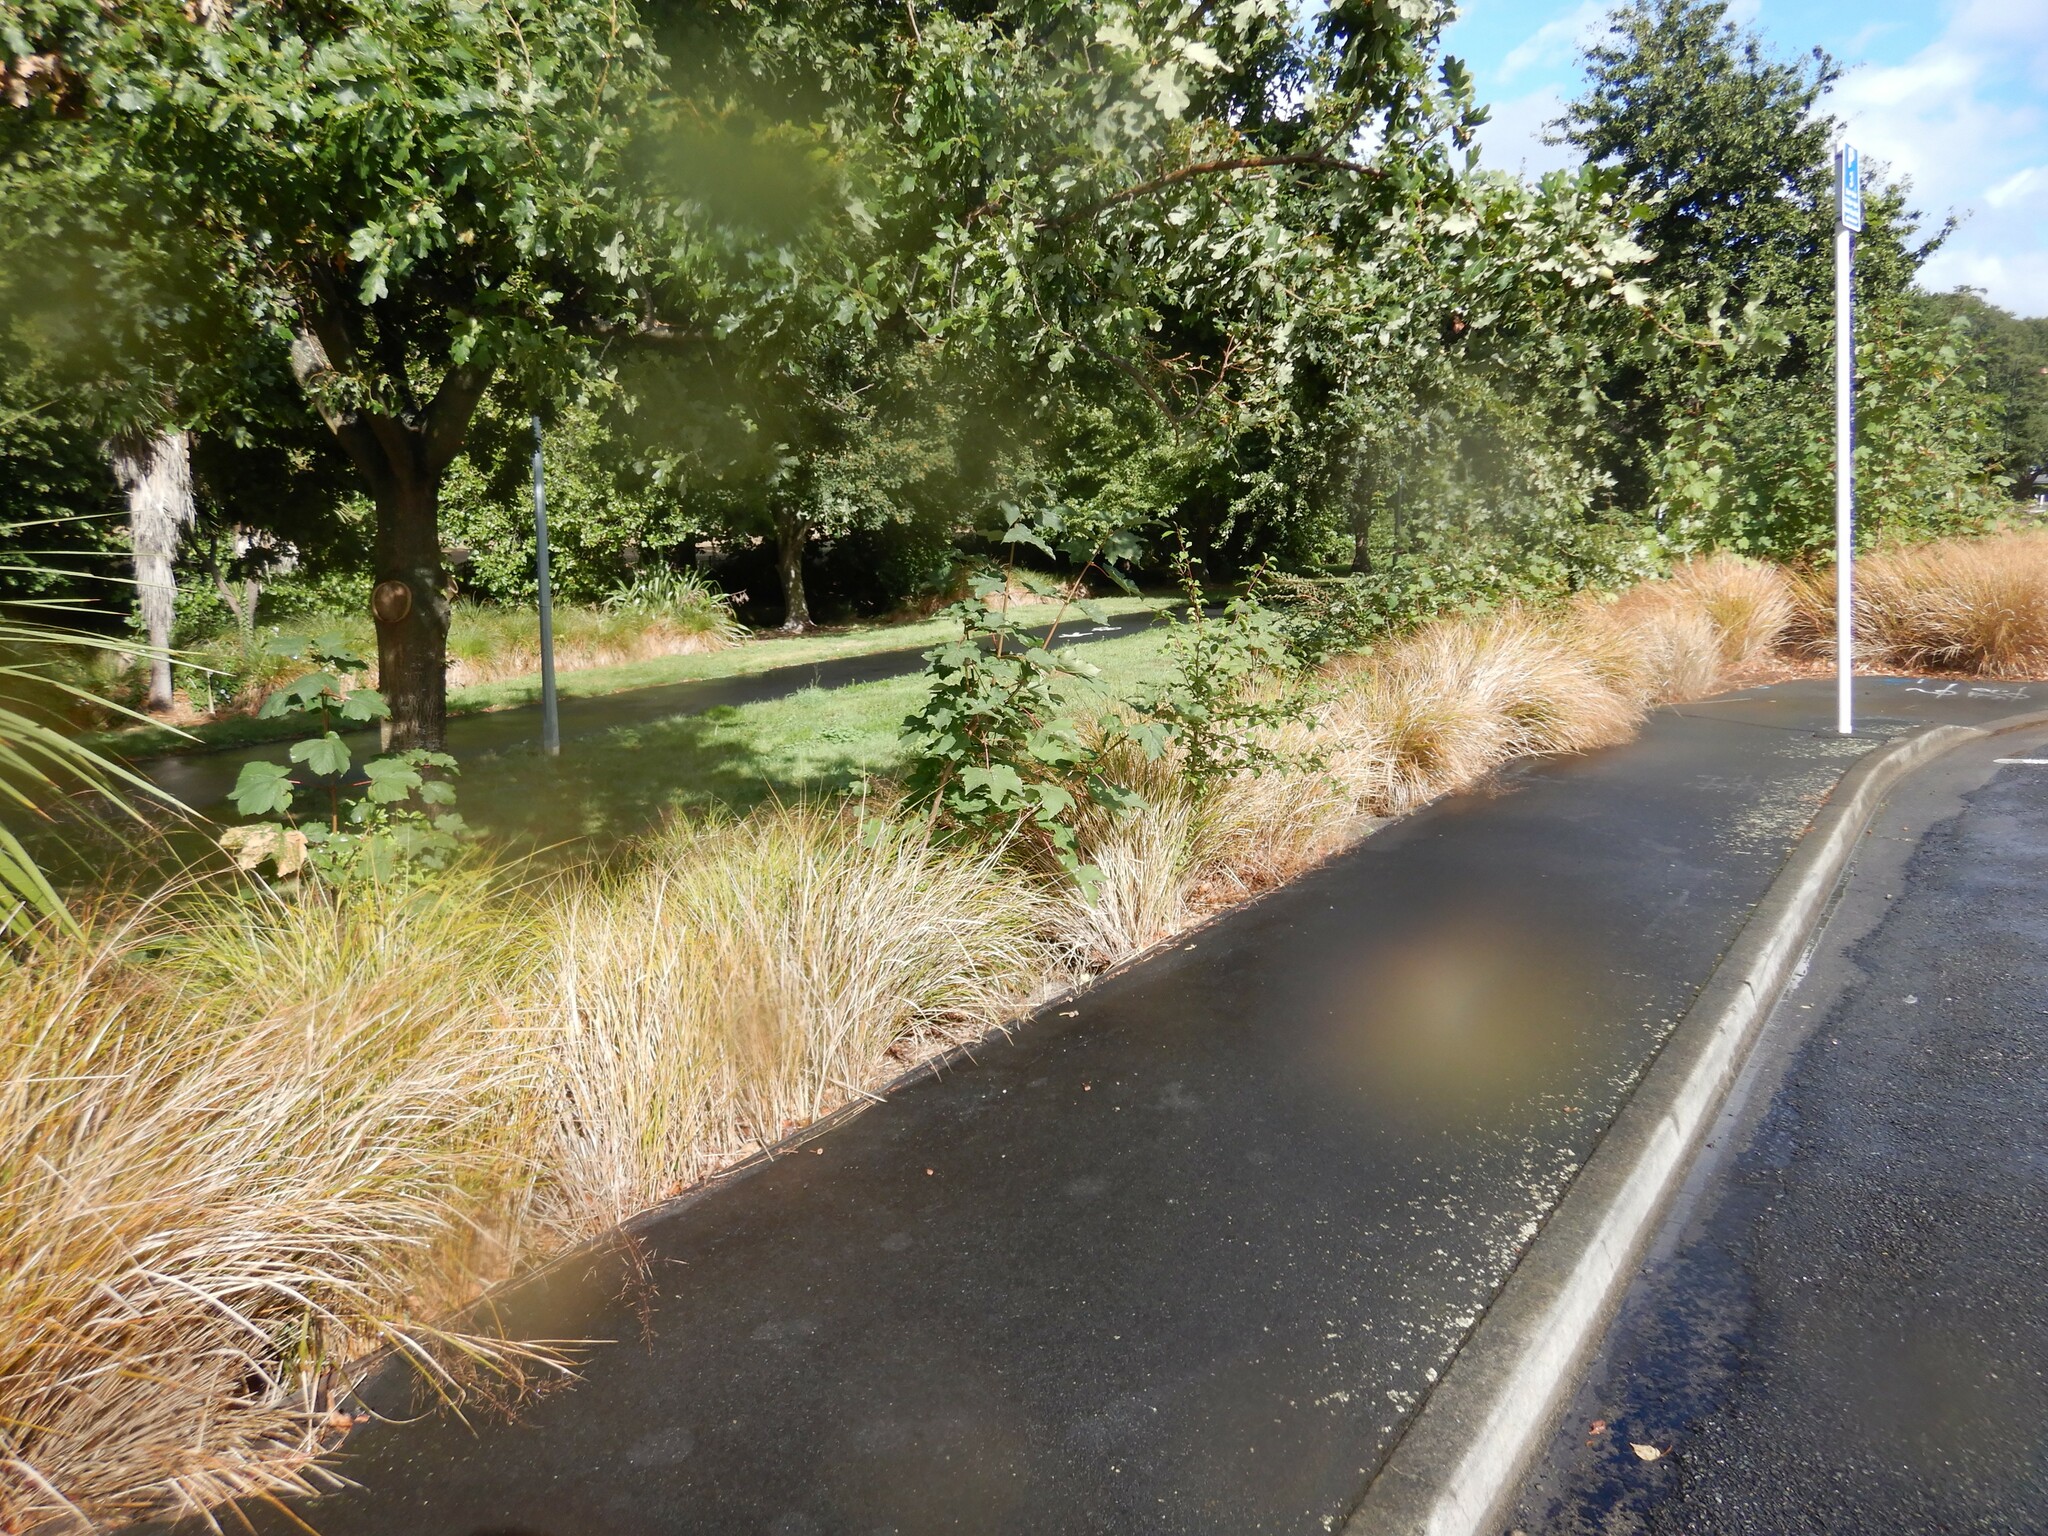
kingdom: Plantae
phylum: Tracheophyta
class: Magnoliopsida
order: Sapindales
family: Sapindaceae
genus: Acer
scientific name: Acer pseudoplatanus
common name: Sycamore
